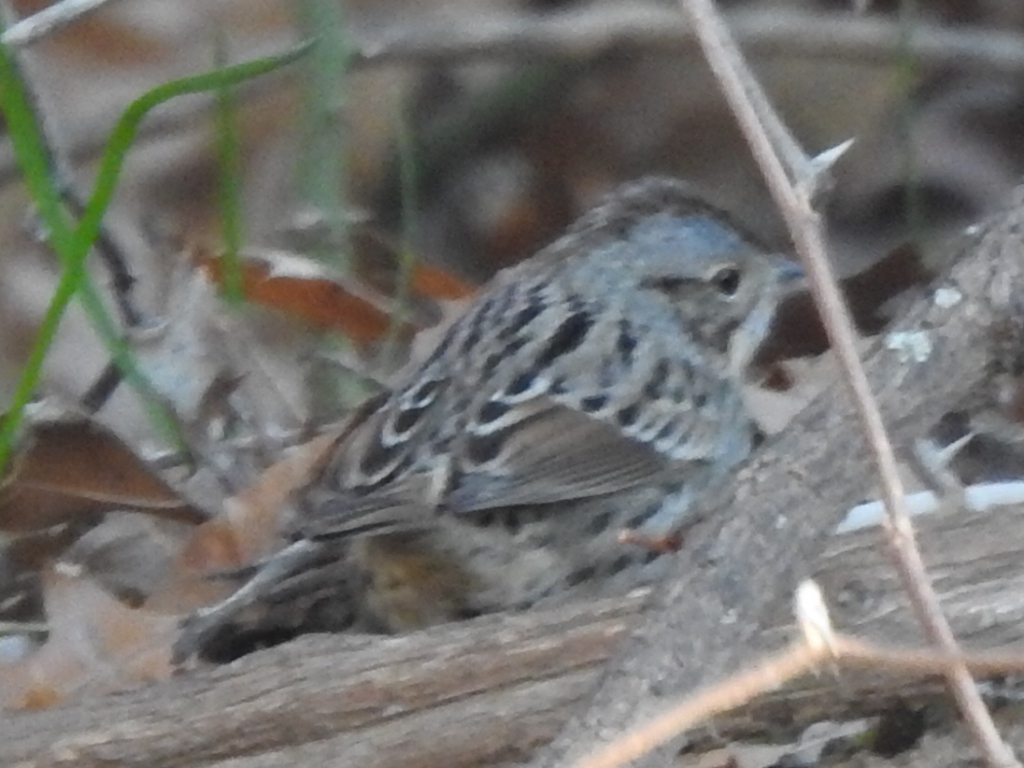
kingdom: Animalia
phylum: Chordata
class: Aves
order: Passeriformes
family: Passerellidae
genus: Melospiza
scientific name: Melospiza lincolnii
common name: Lincoln's sparrow
